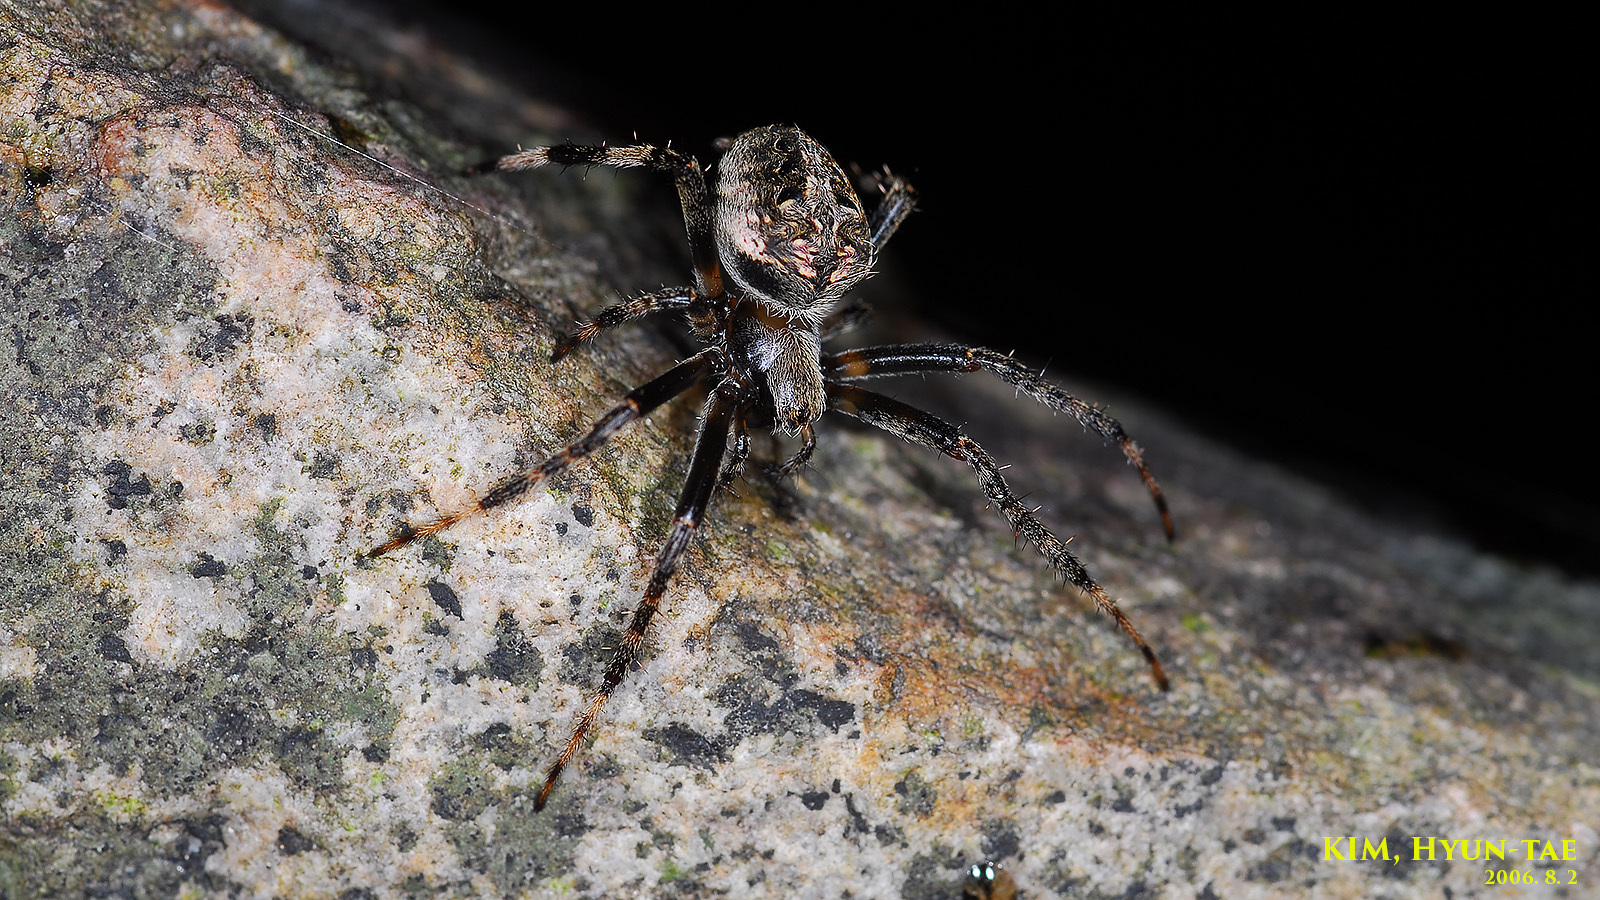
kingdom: Animalia
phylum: Arthropoda
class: Arachnida
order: Araneae
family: Araneidae
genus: Neoscona
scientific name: Neoscona scylla
